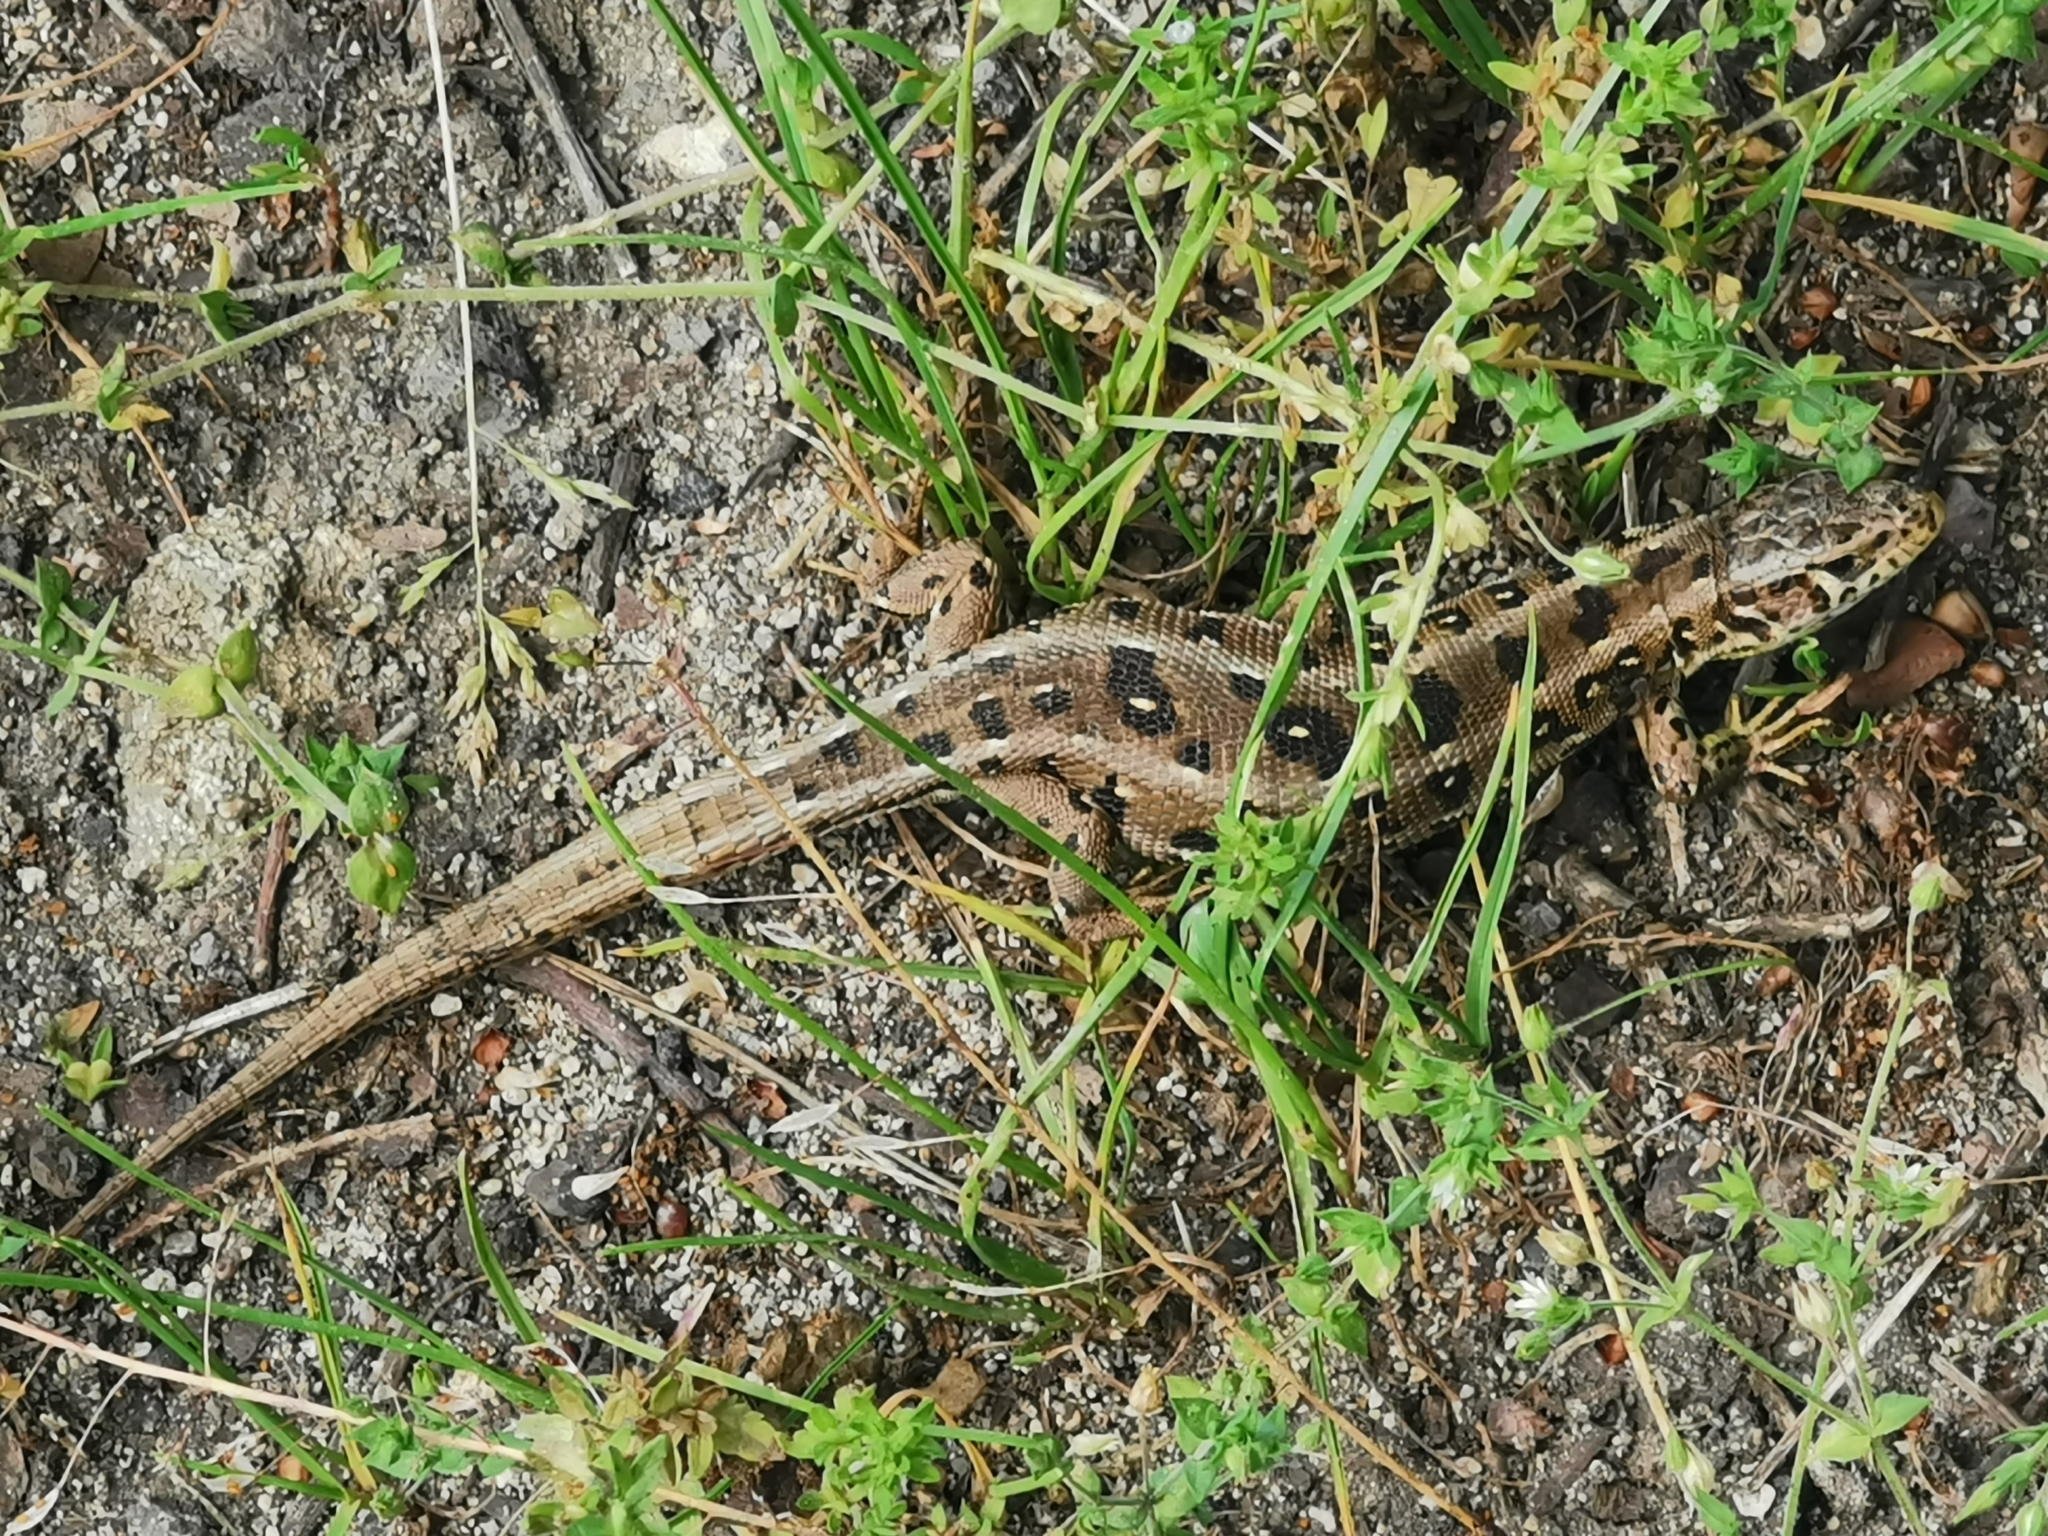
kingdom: Animalia
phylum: Chordata
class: Squamata
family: Lacertidae
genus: Lacerta
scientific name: Lacerta agilis
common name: Sand lizard
